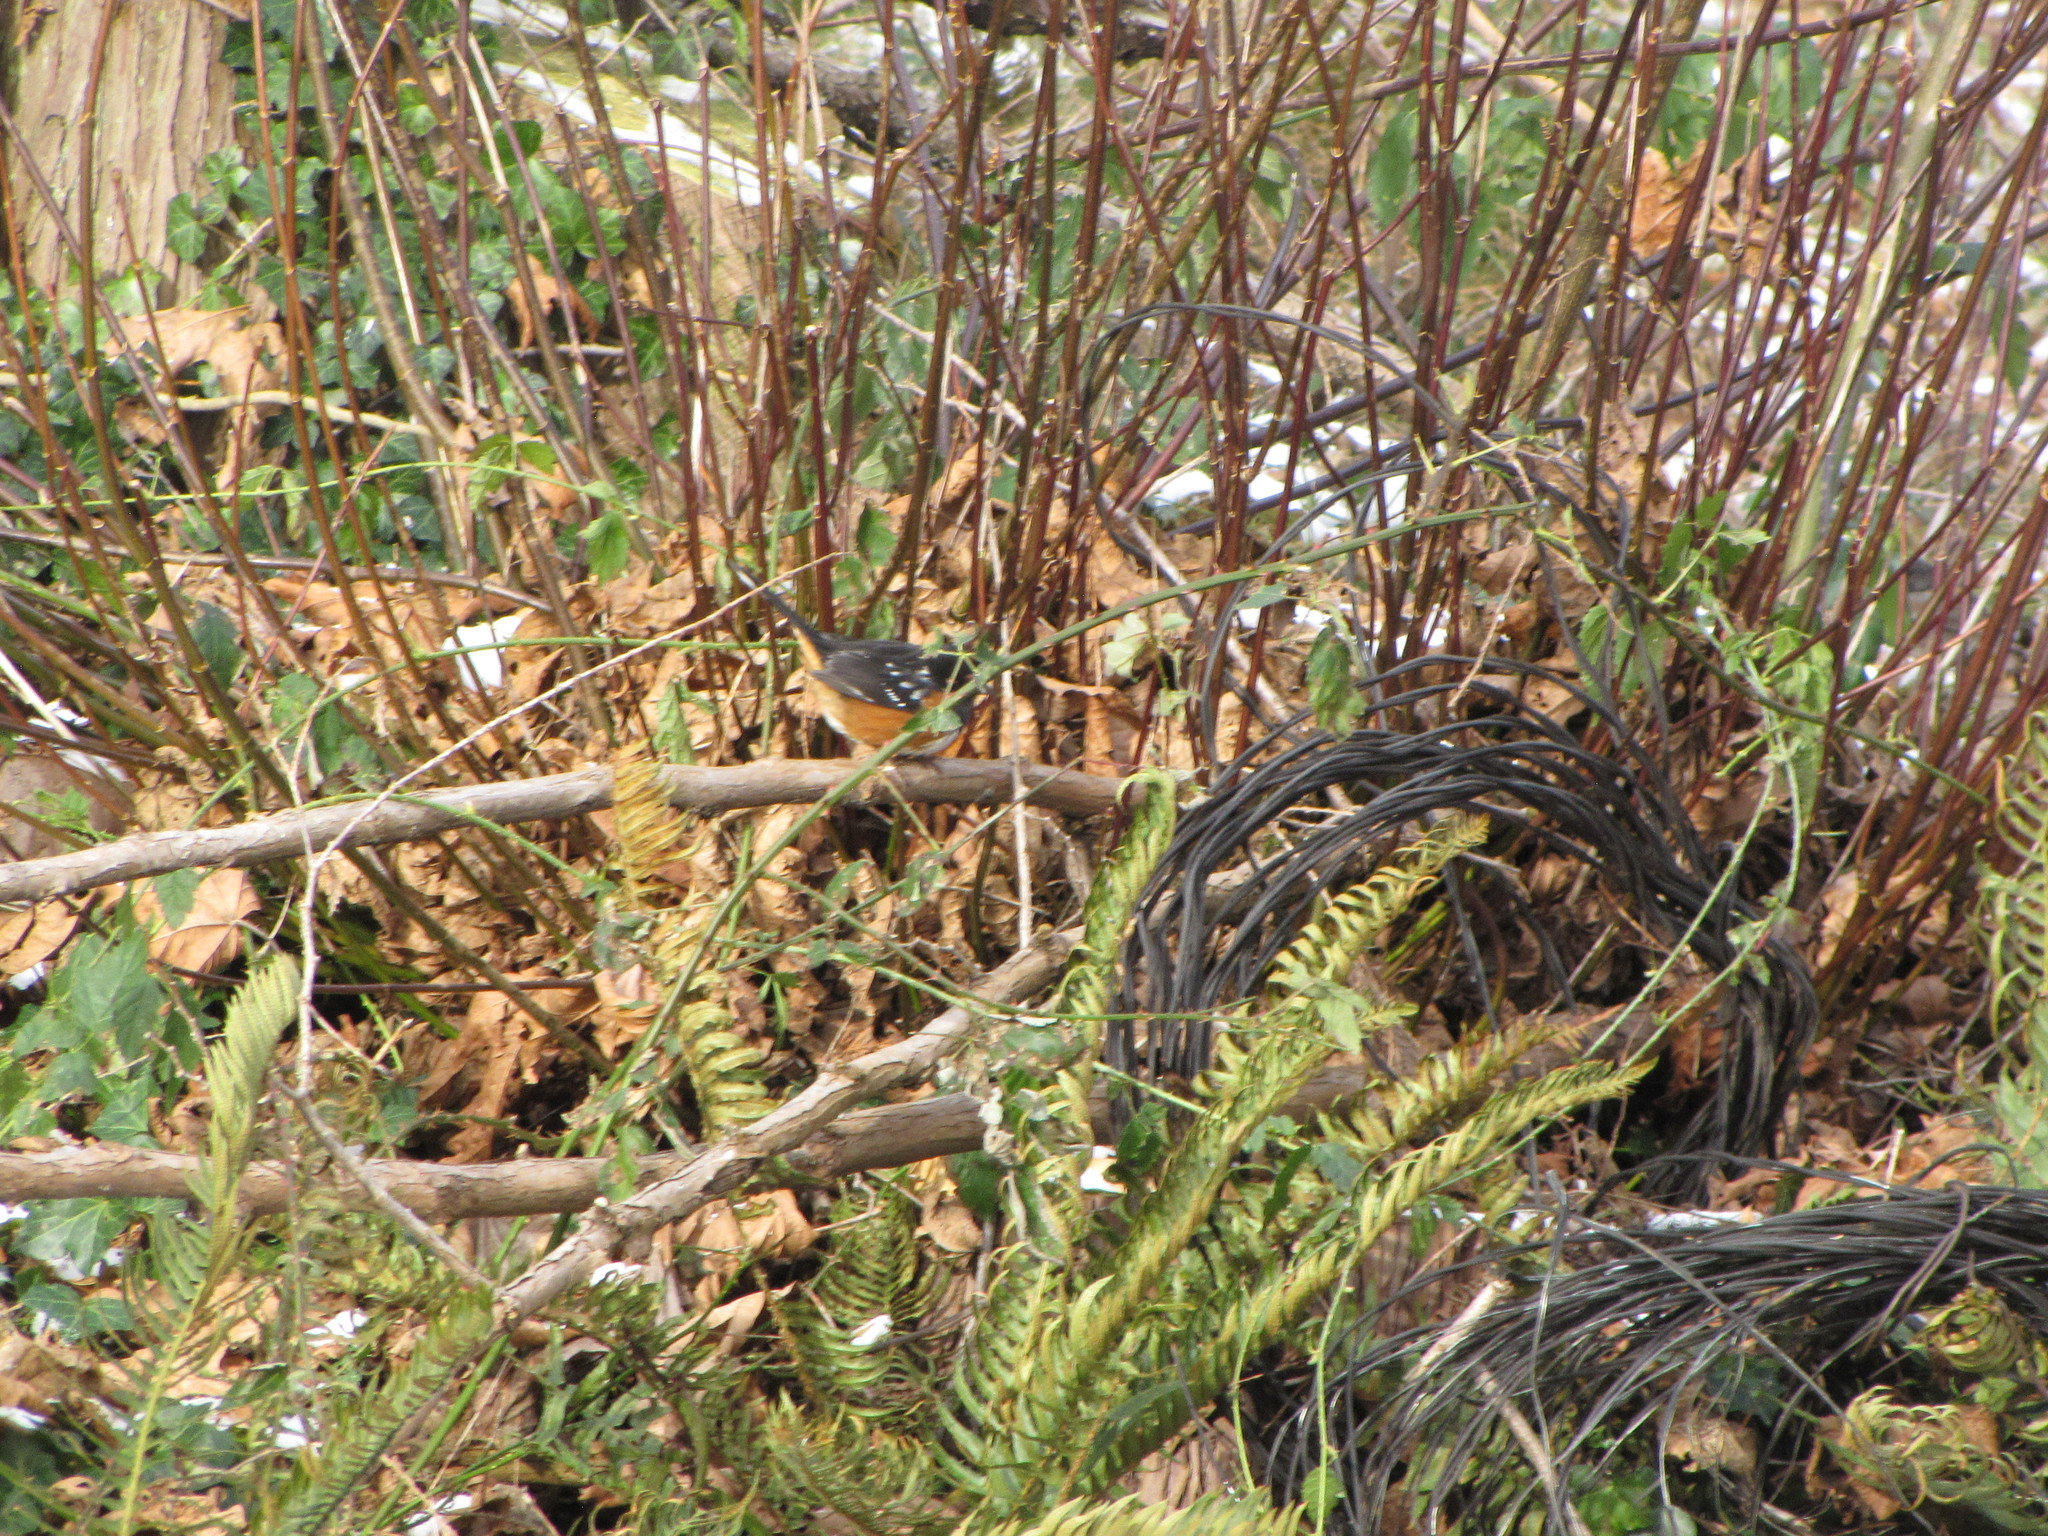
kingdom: Animalia
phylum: Chordata
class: Aves
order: Passeriformes
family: Passerellidae
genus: Pipilo
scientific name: Pipilo maculatus
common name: Spotted towhee
